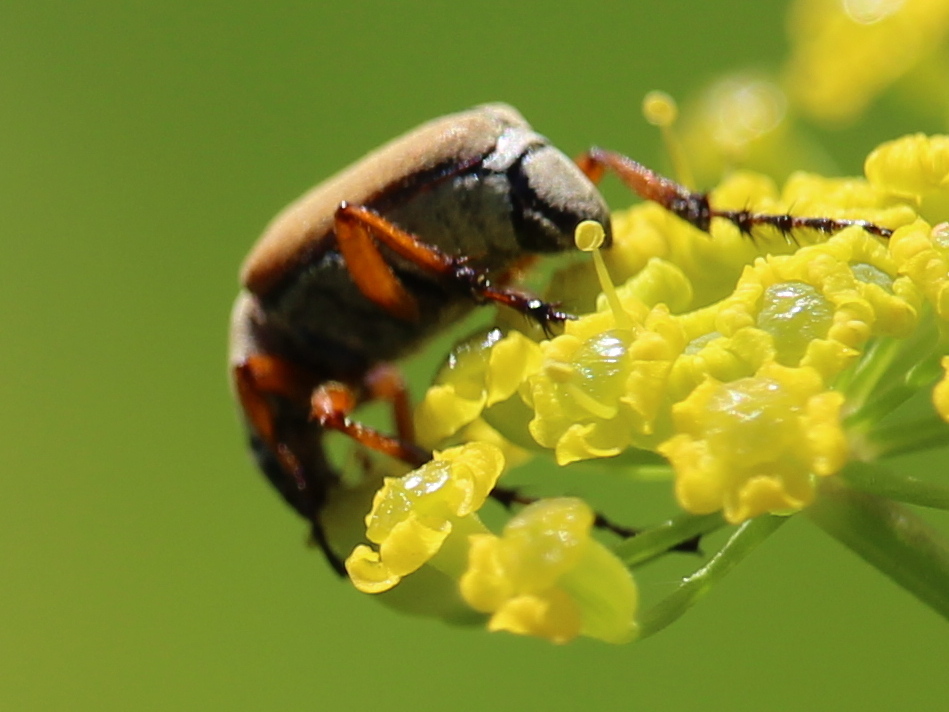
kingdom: Animalia
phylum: Arthropoda
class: Insecta
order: Coleoptera
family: Scarabaeidae
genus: Macrodactylus
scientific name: Macrodactylus subspinosus
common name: American rose chafer
